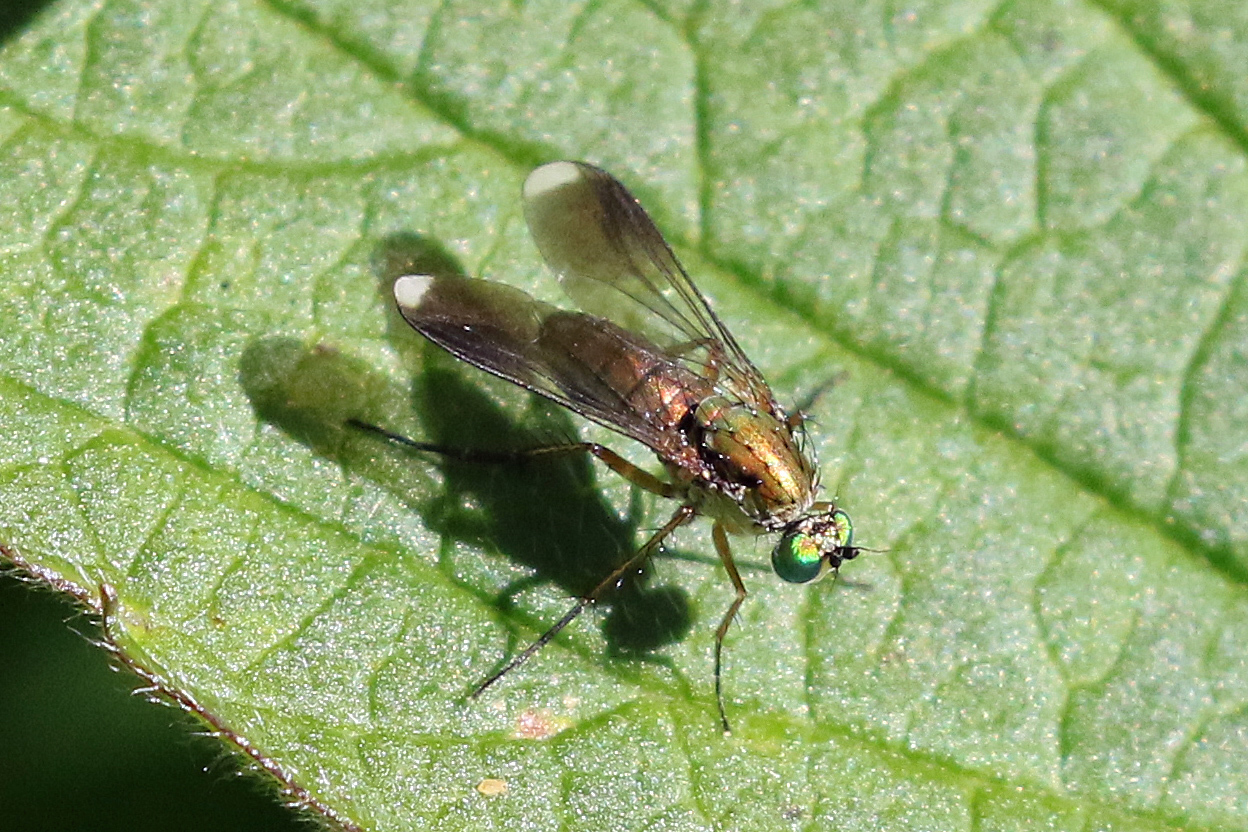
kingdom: Animalia
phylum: Arthropoda
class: Insecta
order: Diptera
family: Dolichopodidae
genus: Poecilobothrus
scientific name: Poecilobothrus nobilitatus
